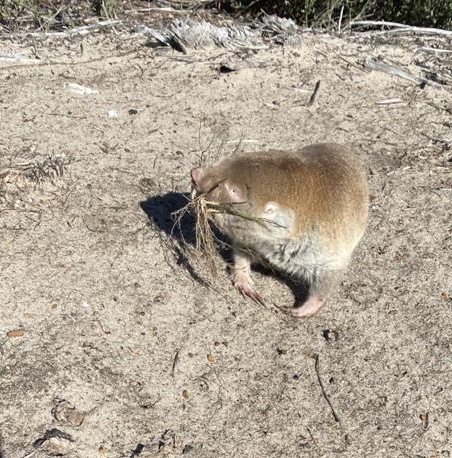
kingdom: Animalia
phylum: Chordata
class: Mammalia
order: Rodentia
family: Bathyergidae
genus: Bathyergus
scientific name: Bathyergus suillus
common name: Cape dune mole rat
